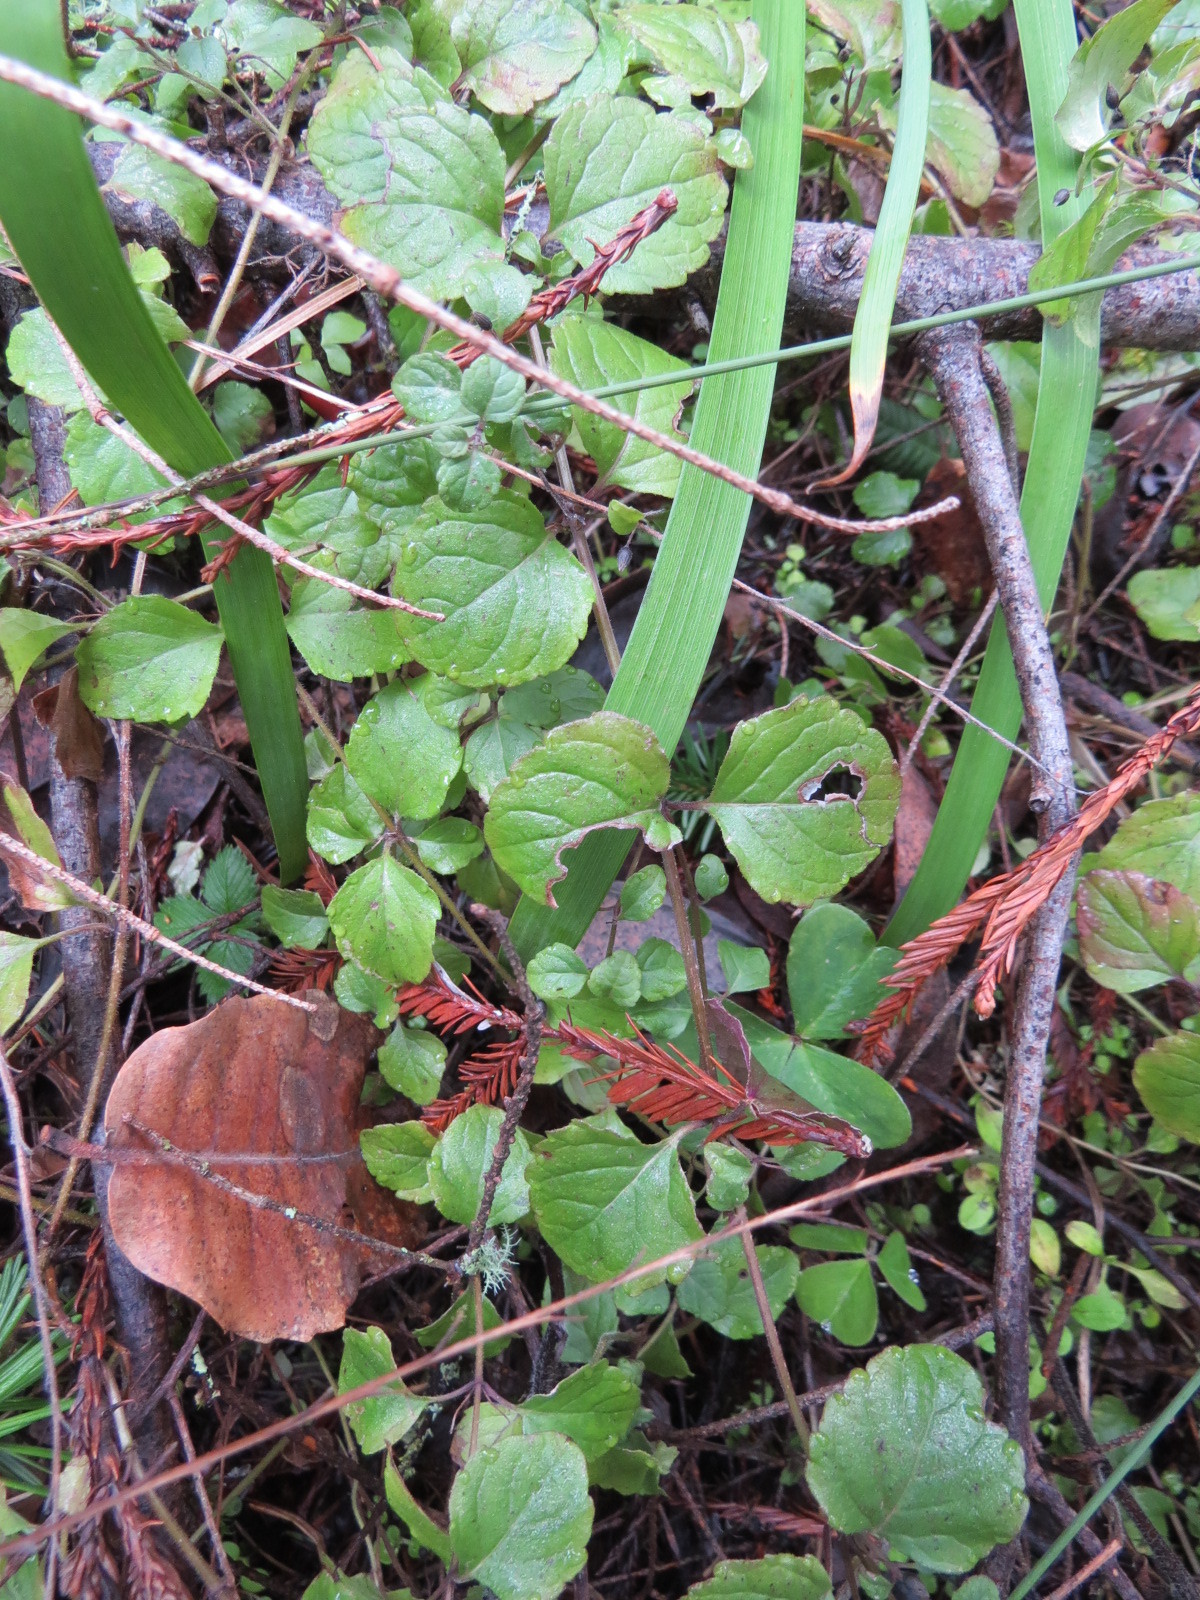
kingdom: Plantae
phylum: Tracheophyta
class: Magnoliopsida
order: Lamiales
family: Lamiaceae
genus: Micromeria
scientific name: Micromeria douglasii
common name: Yerba buena
